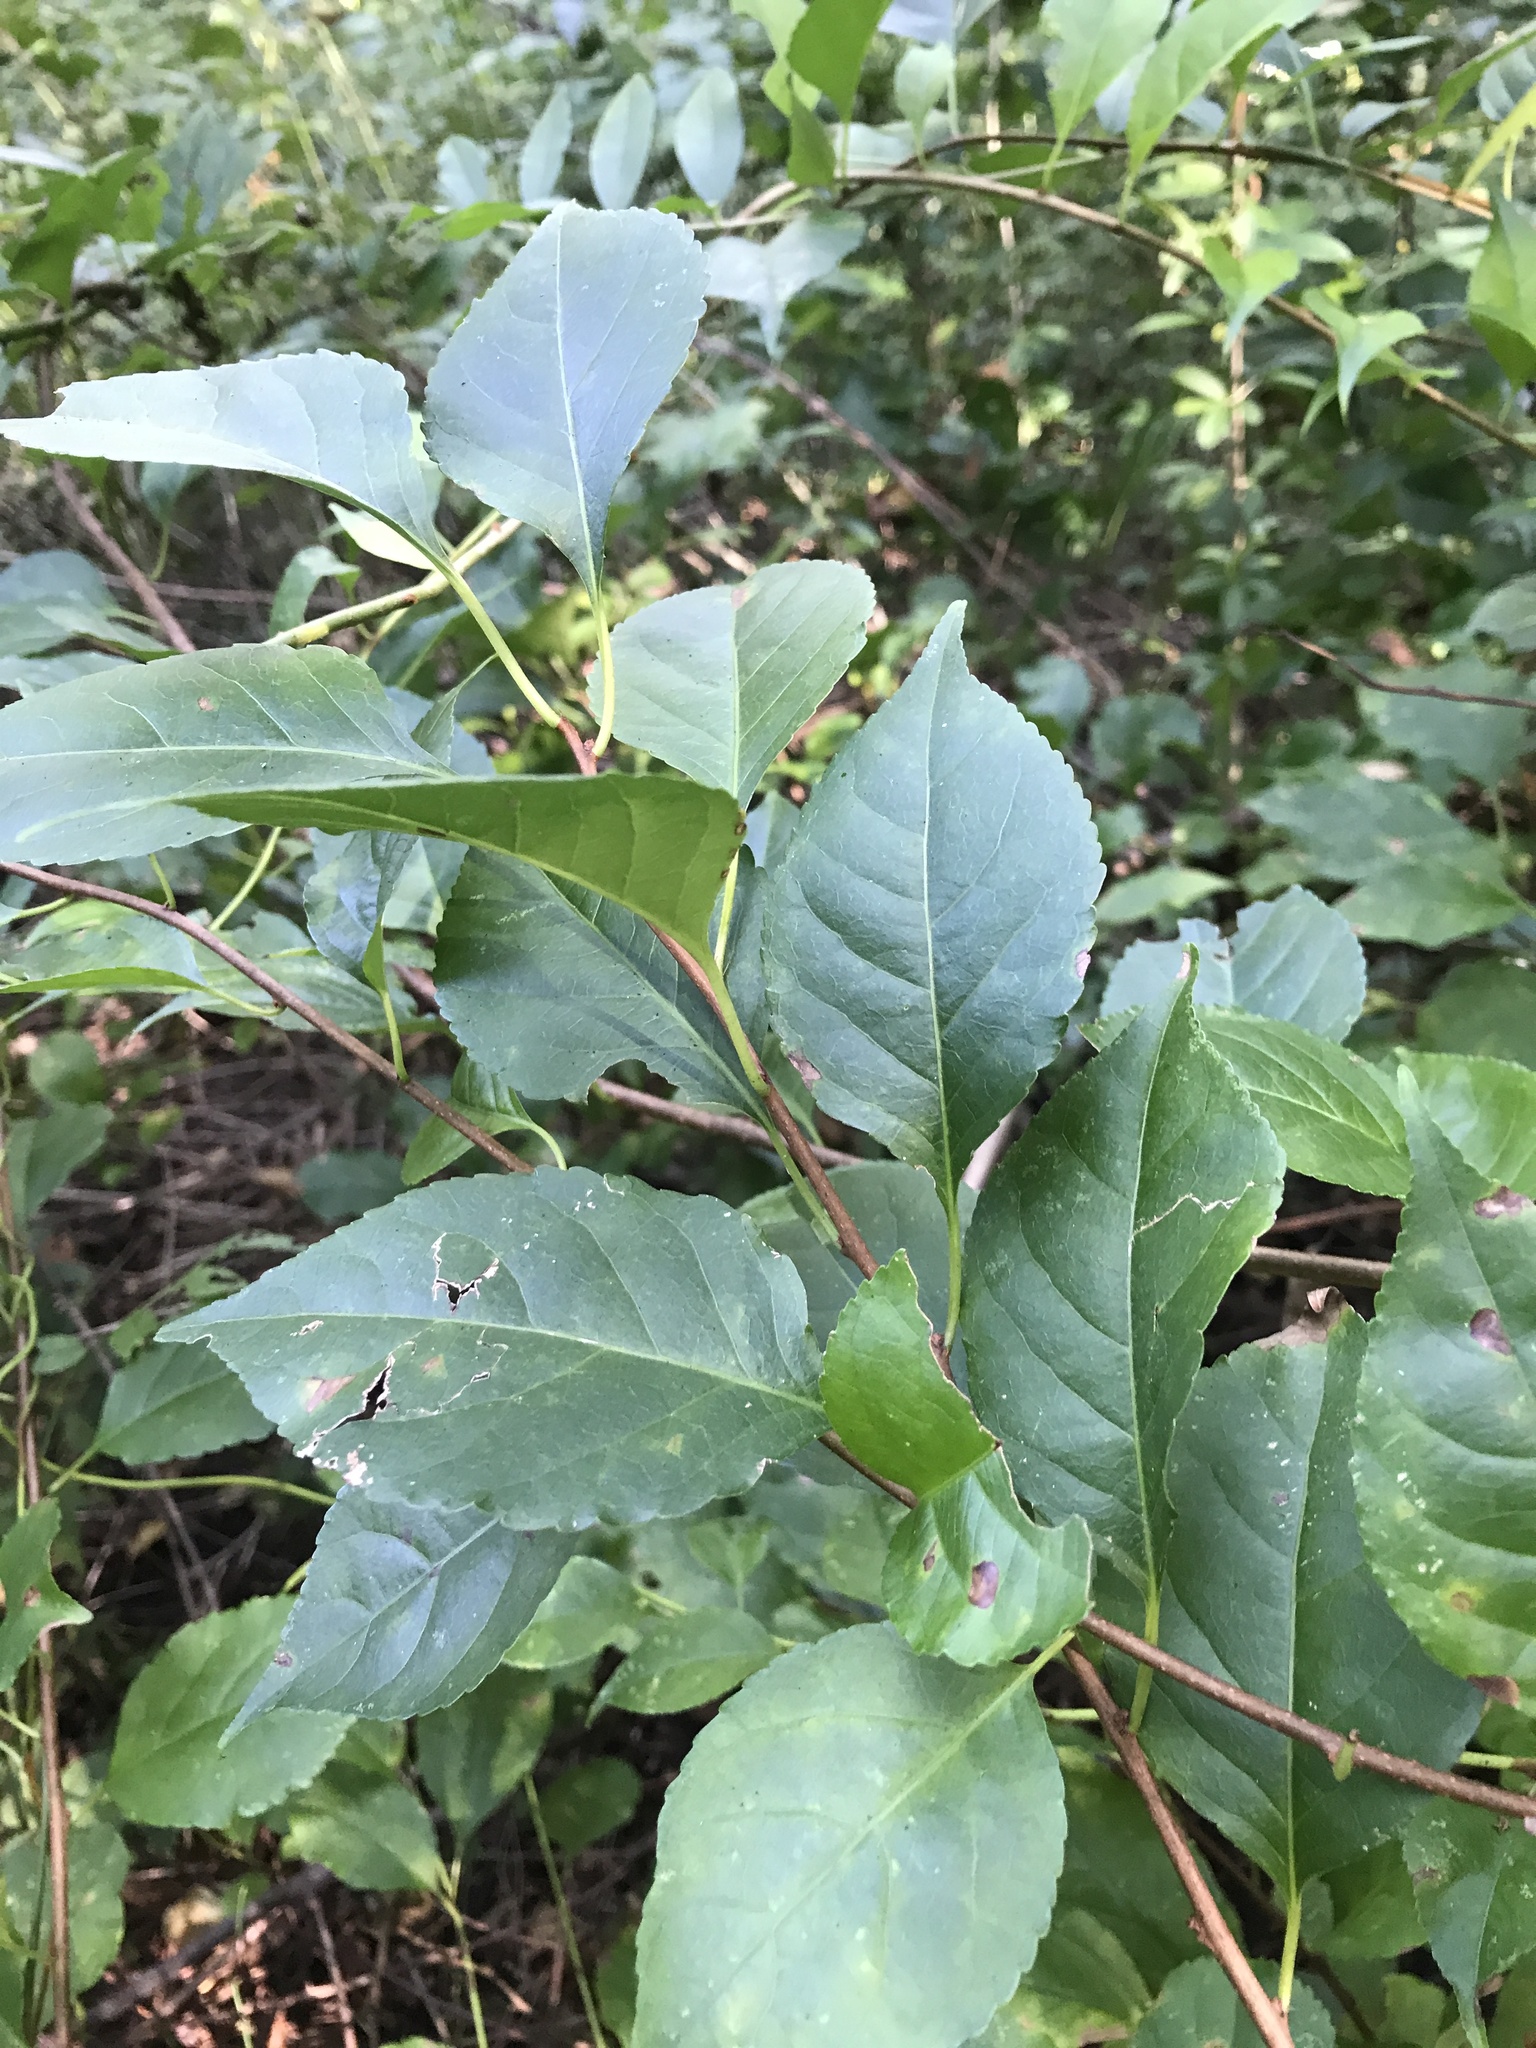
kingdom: Plantae
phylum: Tracheophyta
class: Magnoliopsida
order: Celastrales
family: Celastraceae
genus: Celastrus
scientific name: Celastrus orbiculatus
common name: Oriental bittersweet
